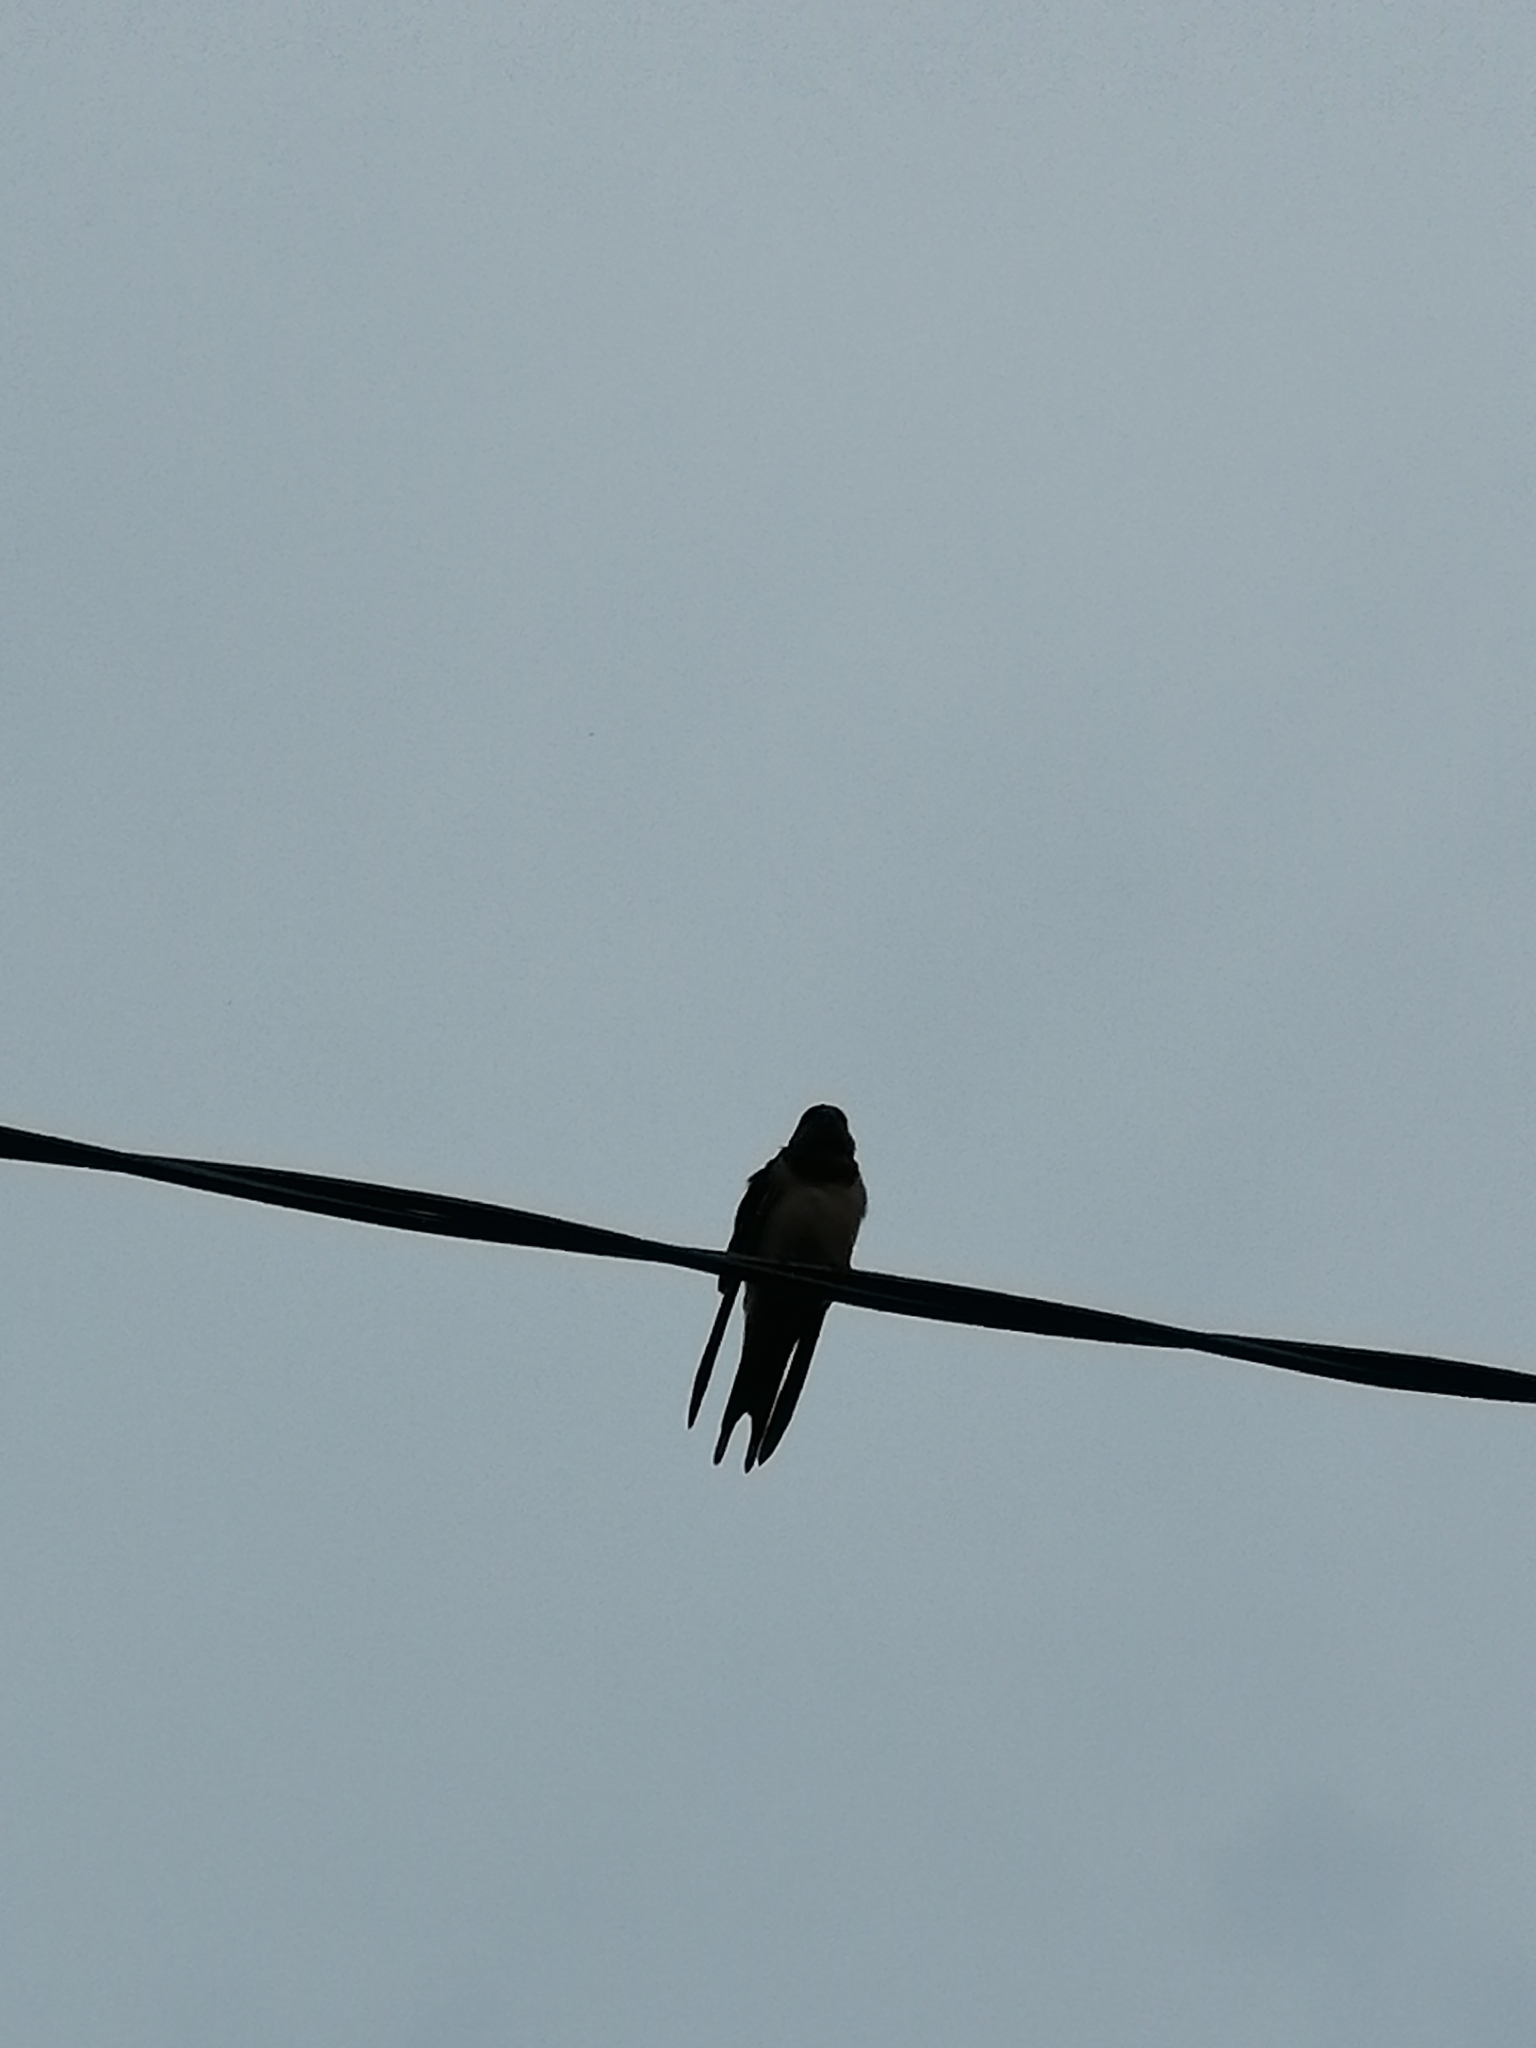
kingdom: Animalia
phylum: Chordata
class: Aves
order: Passeriformes
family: Hirundinidae
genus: Hirundo
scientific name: Hirundo rustica
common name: Barn swallow
